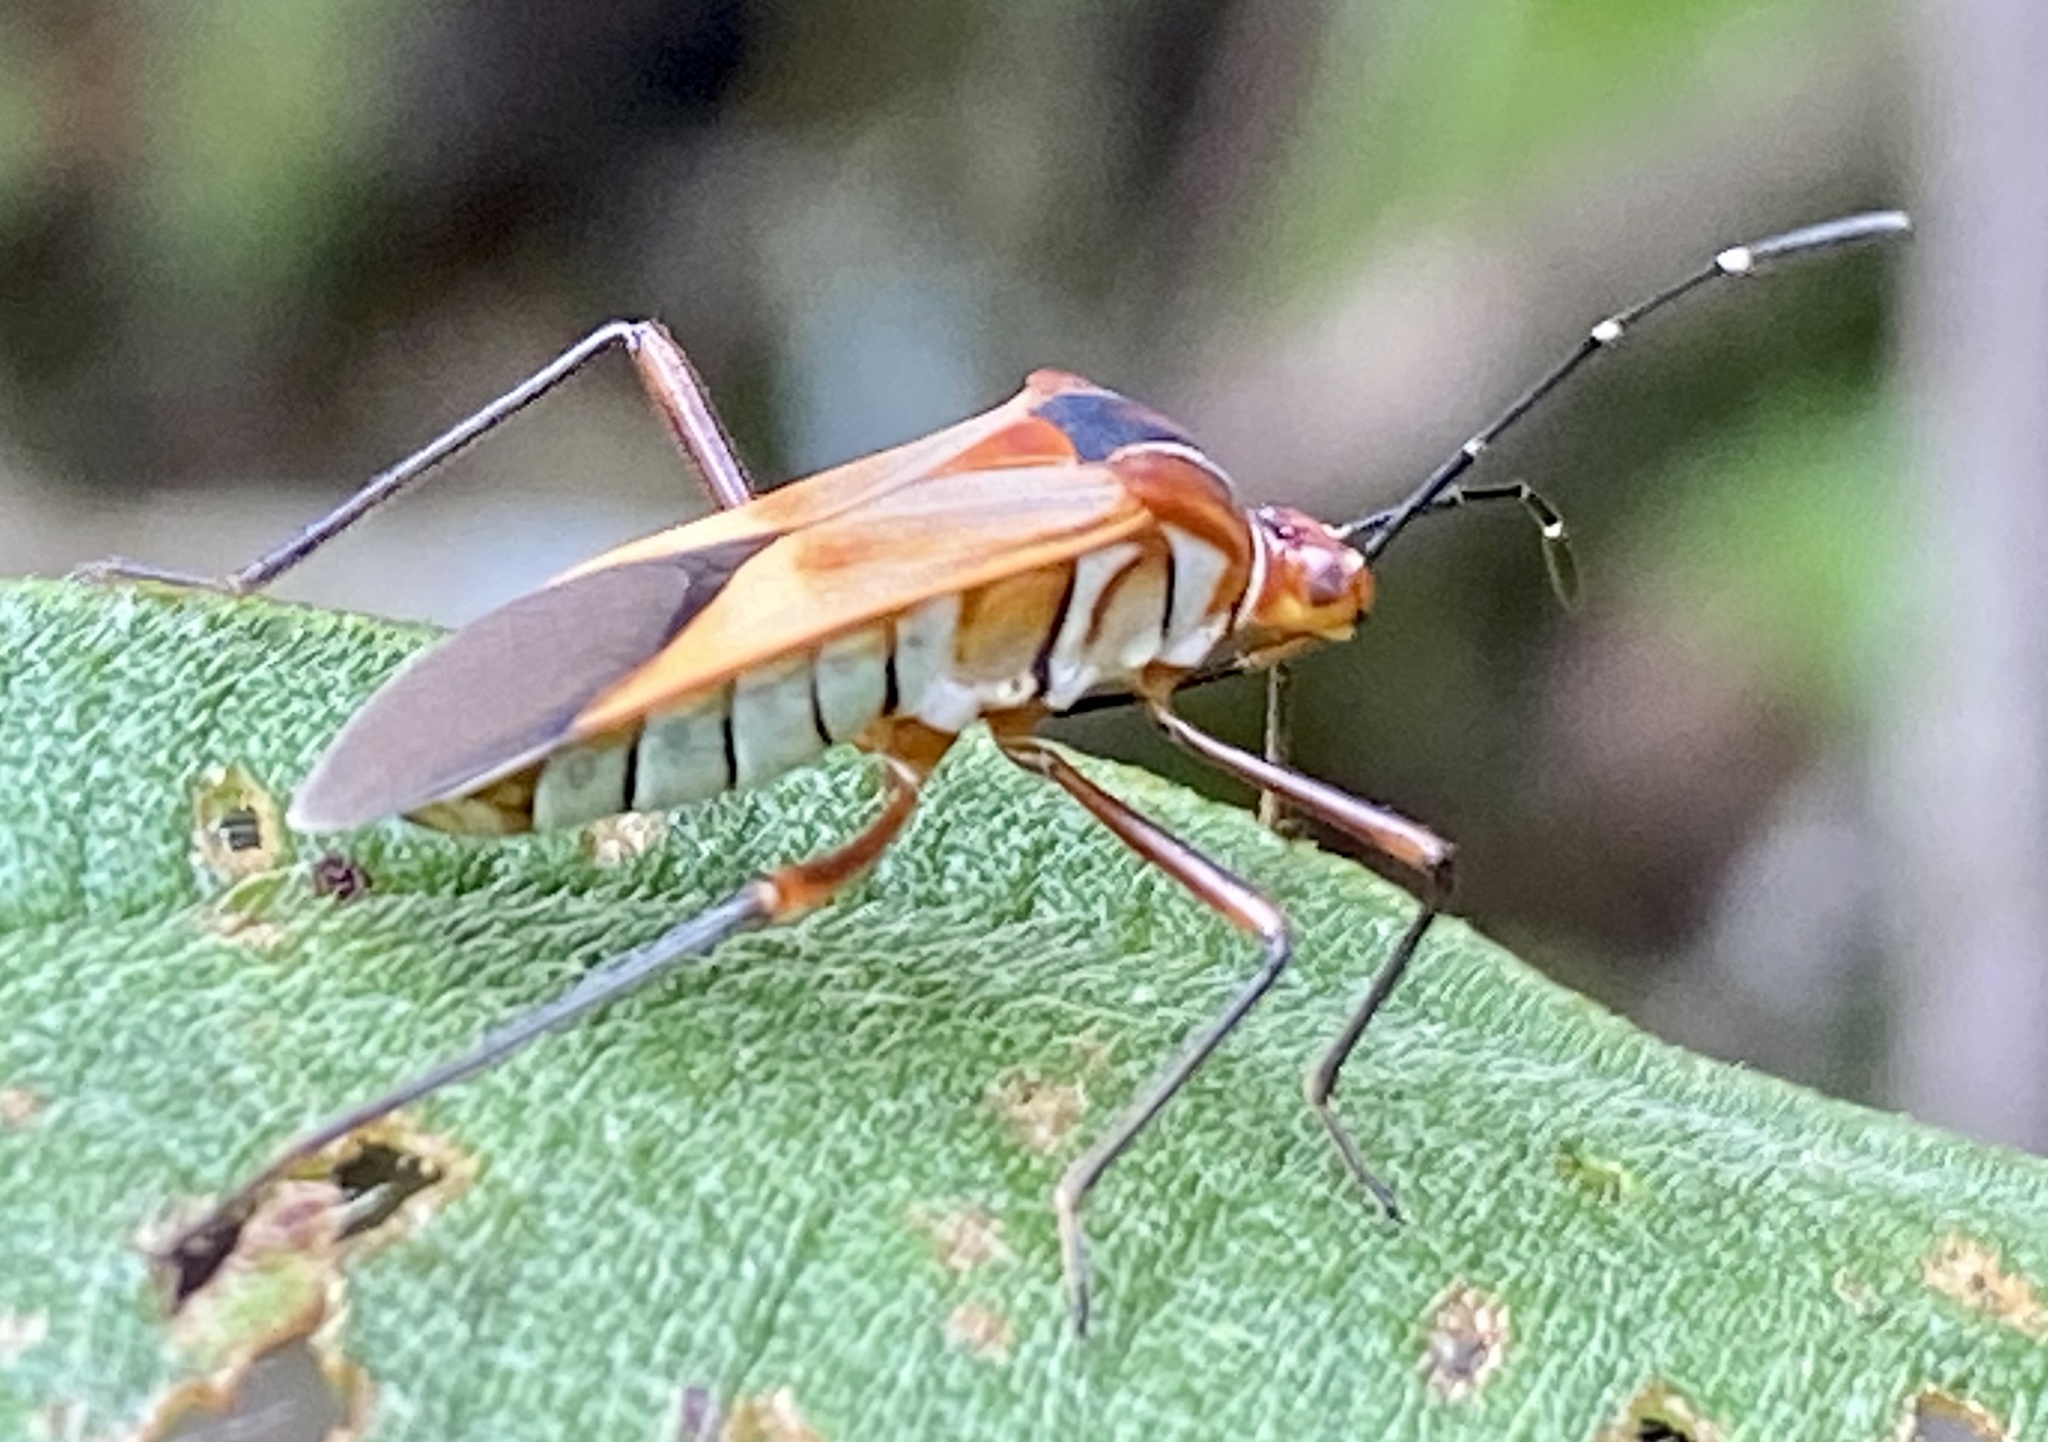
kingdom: Animalia
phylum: Arthropoda
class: Insecta
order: Hemiptera
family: Coreidae
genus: Hypselonotus
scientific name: Hypselonotus interruptus
